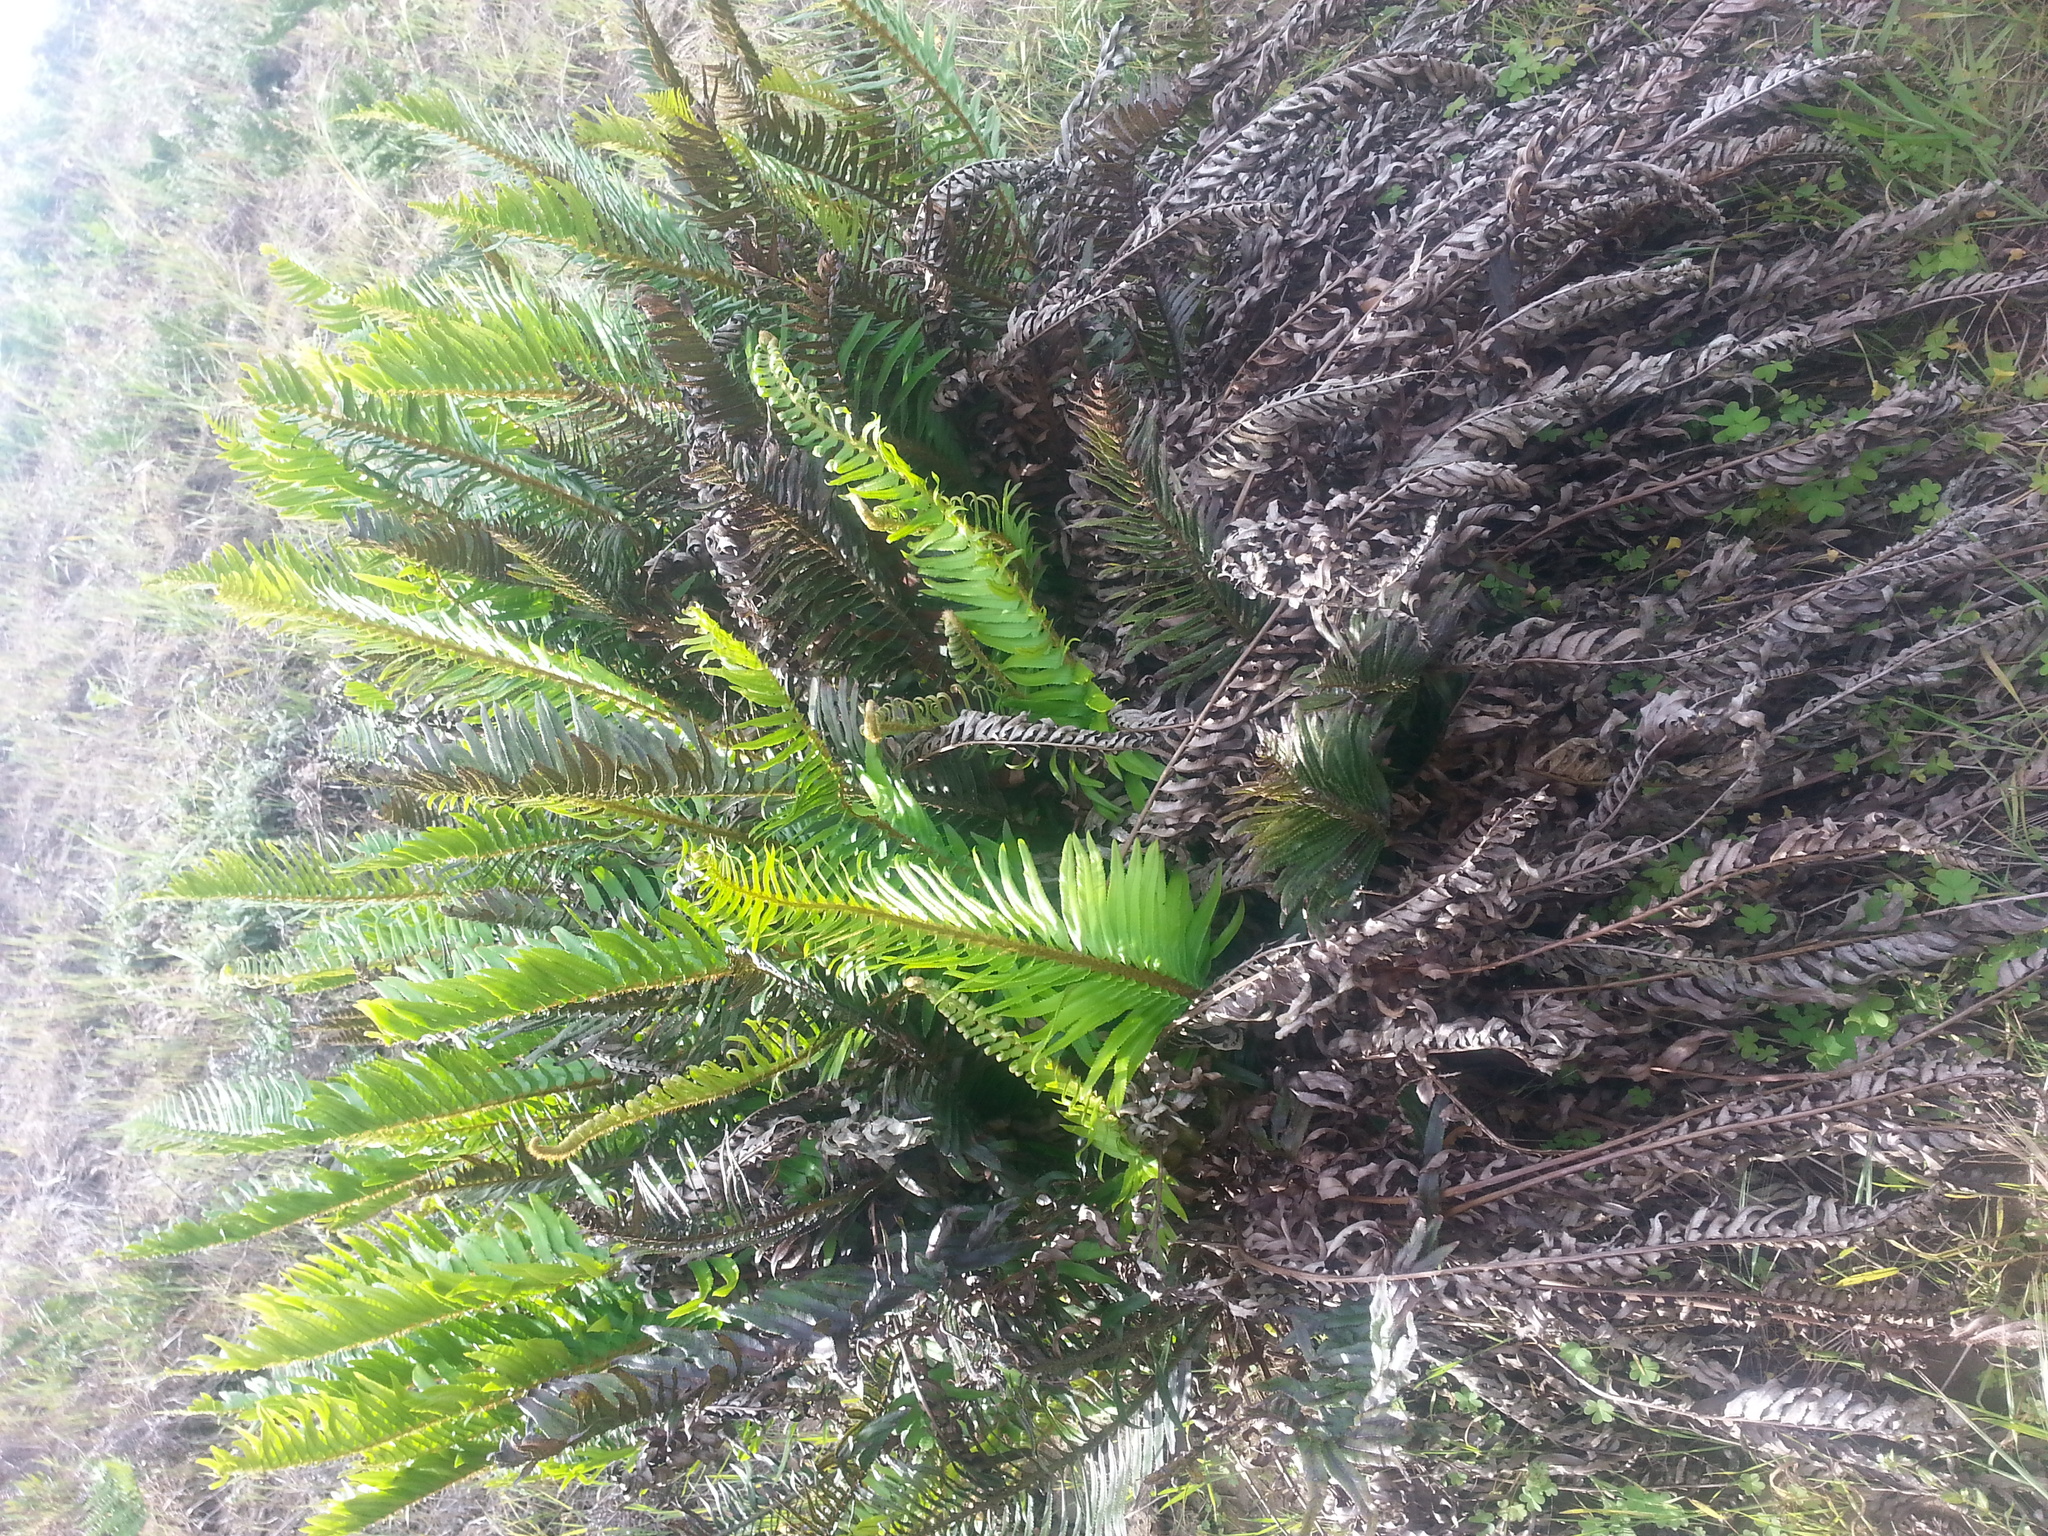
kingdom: Plantae
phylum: Tracheophyta
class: Polypodiopsida
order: Polypodiales
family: Dryopteridaceae
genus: Polystichum
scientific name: Polystichum munitum
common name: Western sword-fern
